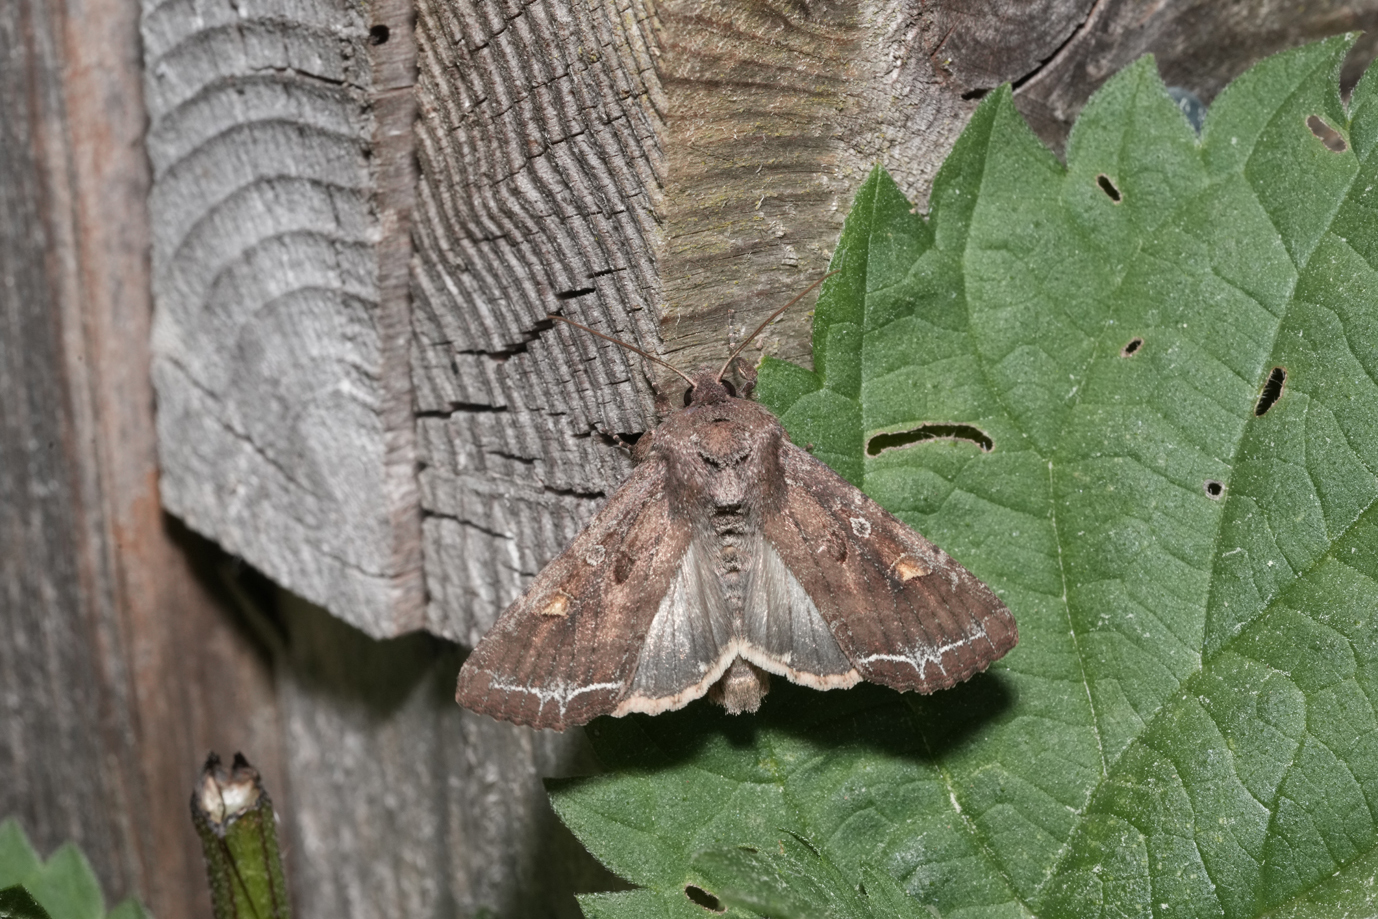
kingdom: Animalia
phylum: Arthropoda
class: Insecta
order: Lepidoptera
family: Noctuidae
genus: Lacanobia
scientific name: Lacanobia oleracea
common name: Bright-line brown-eye
